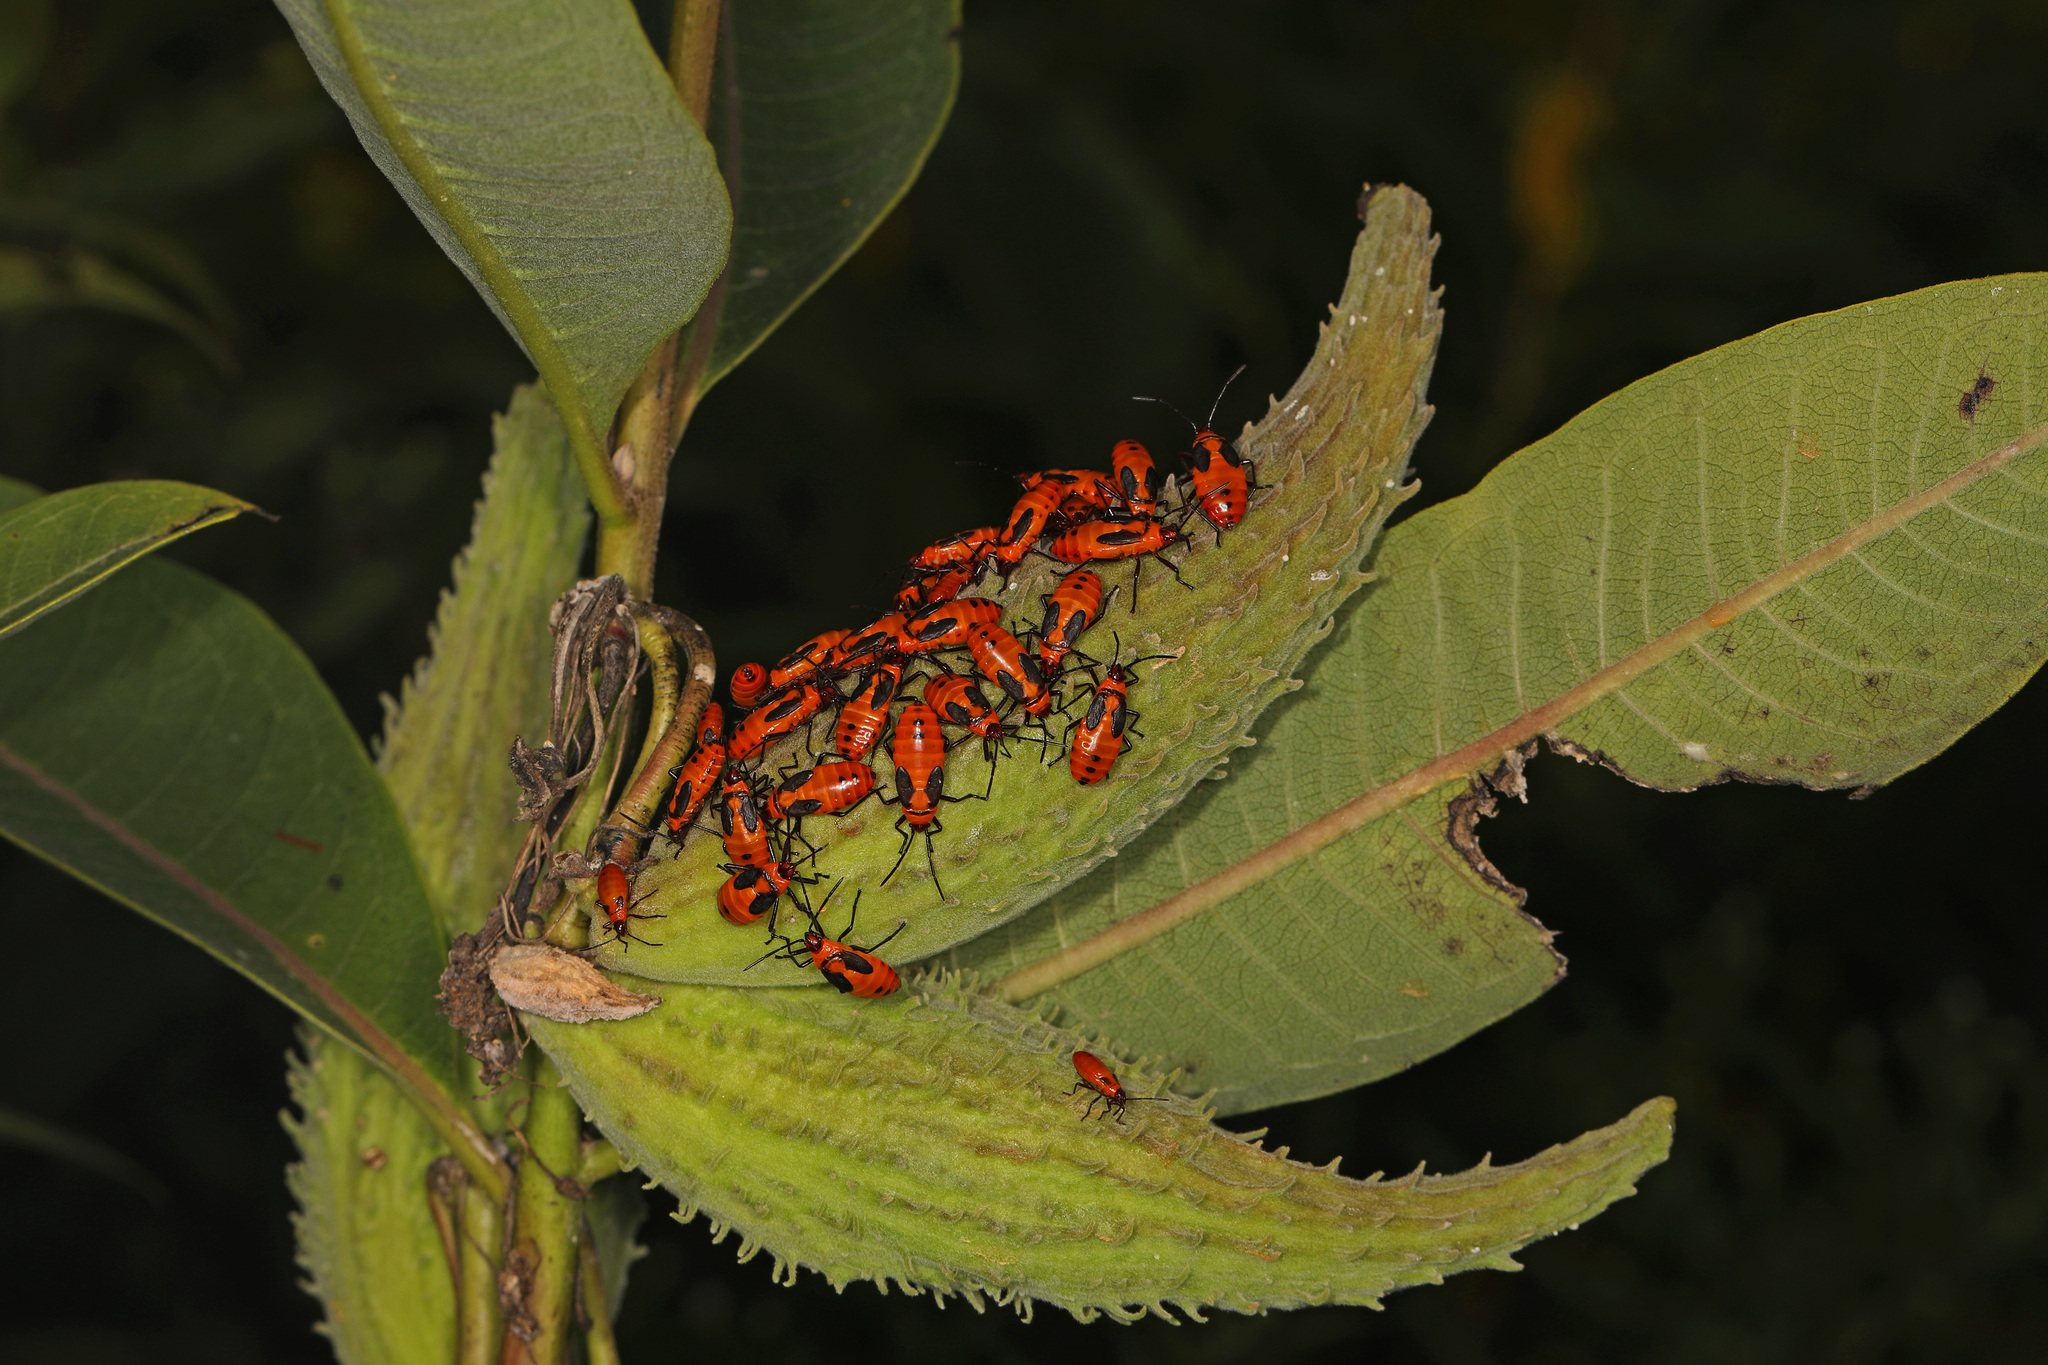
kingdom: Animalia
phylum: Arthropoda
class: Insecta
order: Hemiptera
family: Lygaeidae
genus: Oncopeltus
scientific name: Oncopeltus fasciatus
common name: Large milkweed bug
